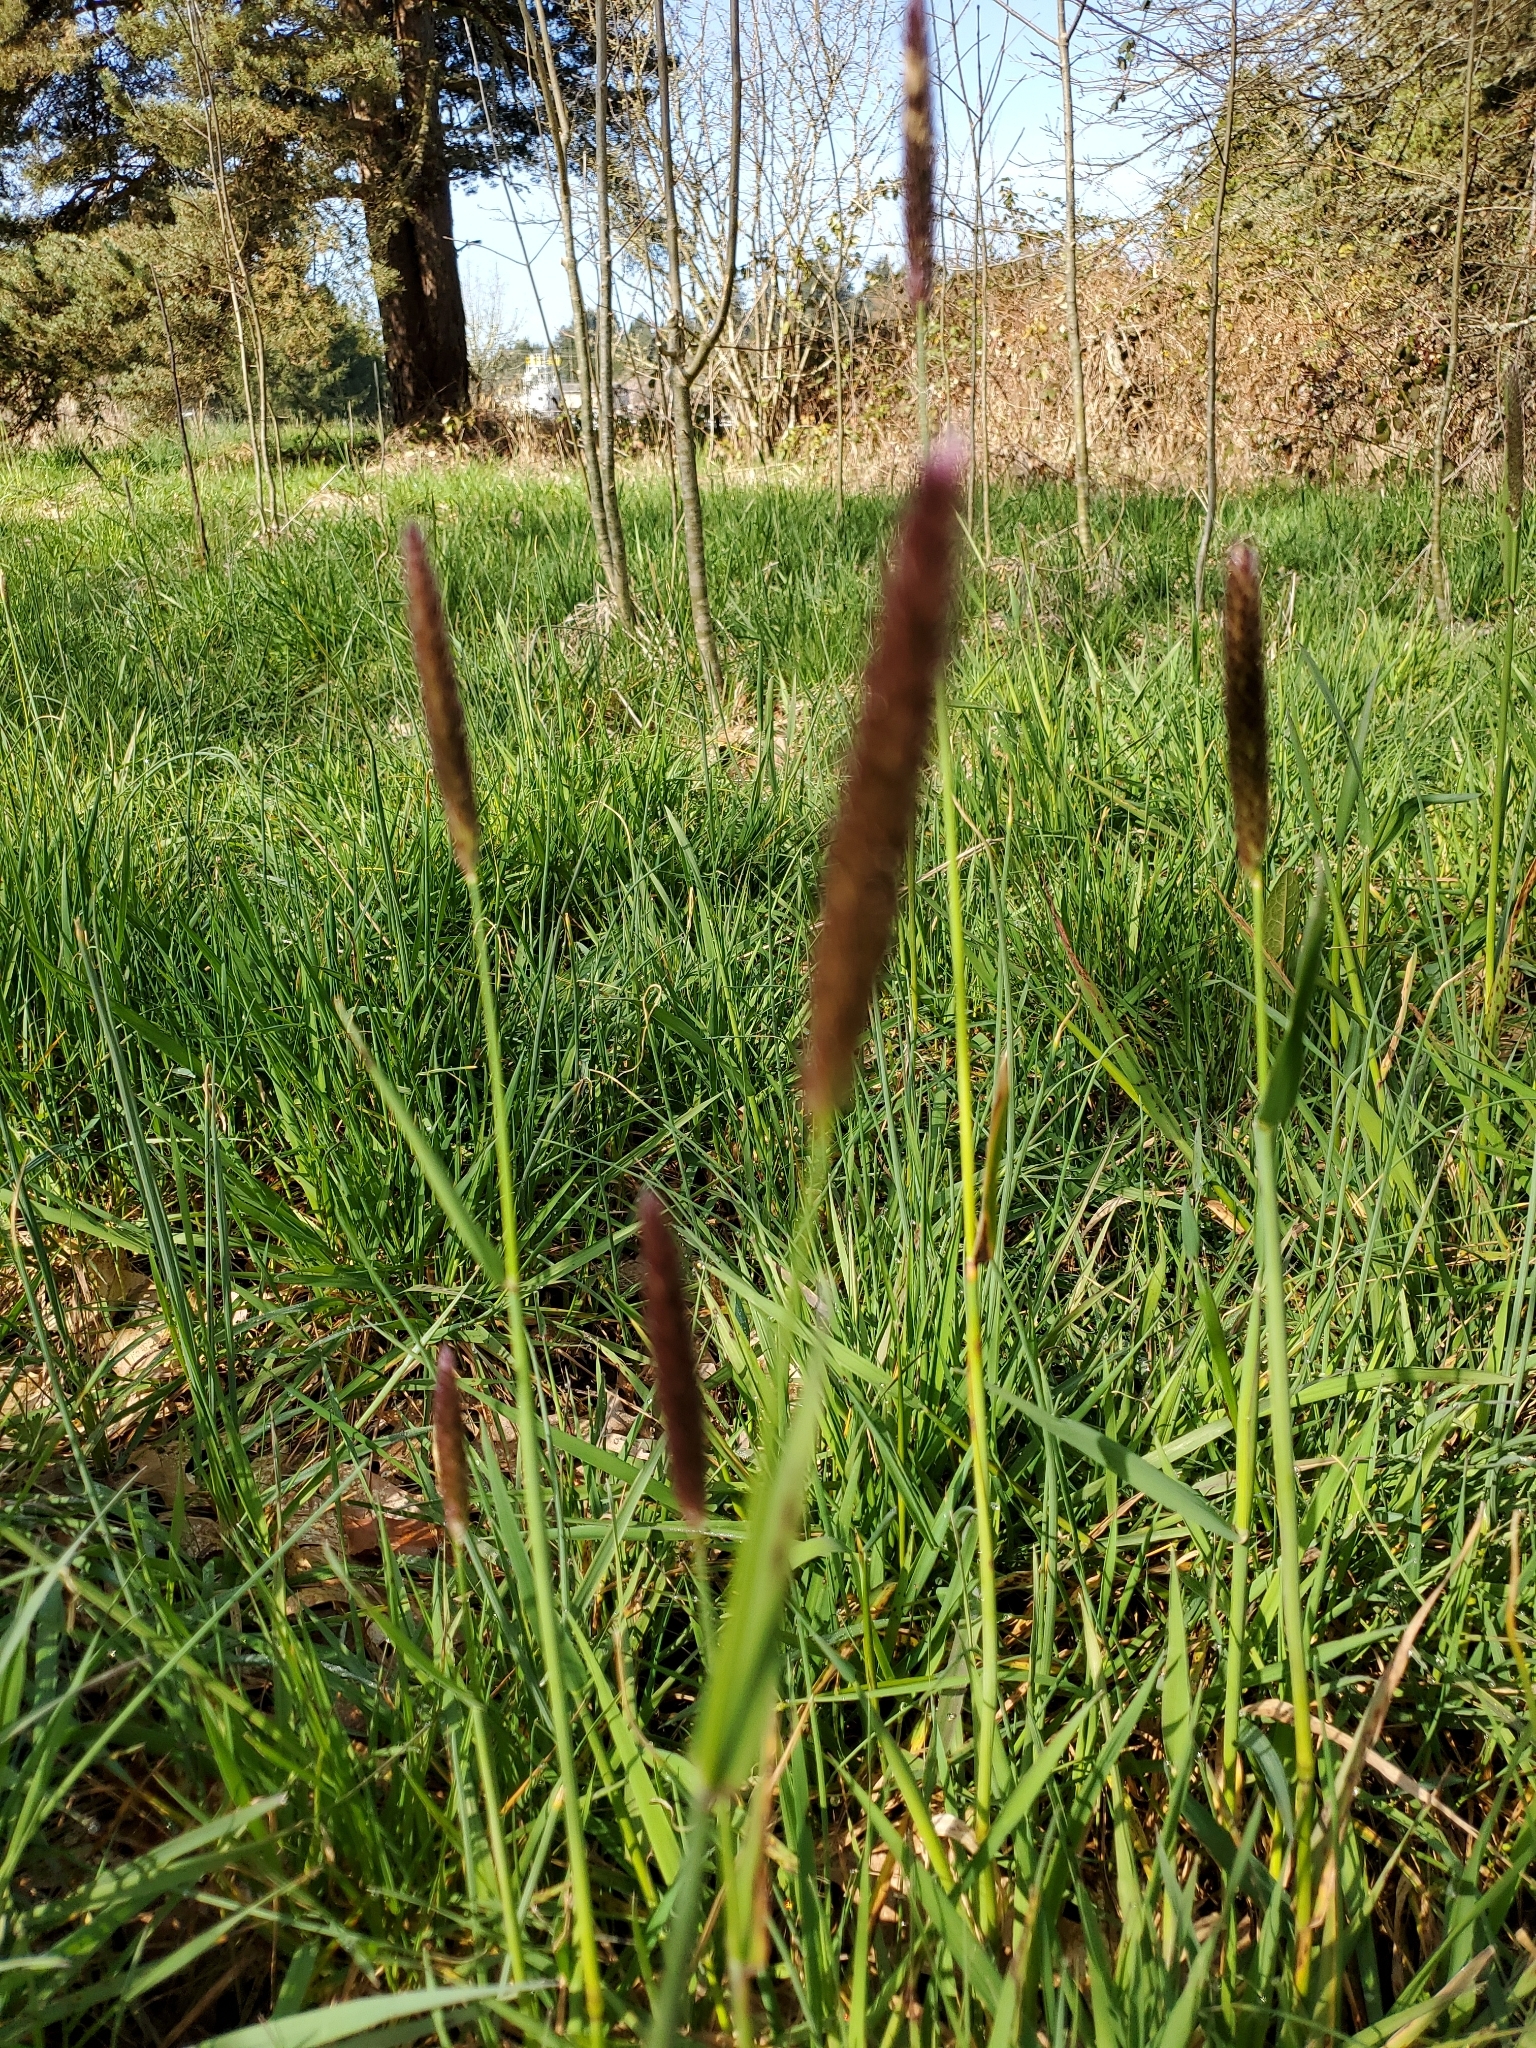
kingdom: Plantae
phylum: Tracheophyta
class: Liliopsida
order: Poales
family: Poaceae
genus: Alopecurus
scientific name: Alopecurus pratensis
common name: Meadow foxtail
